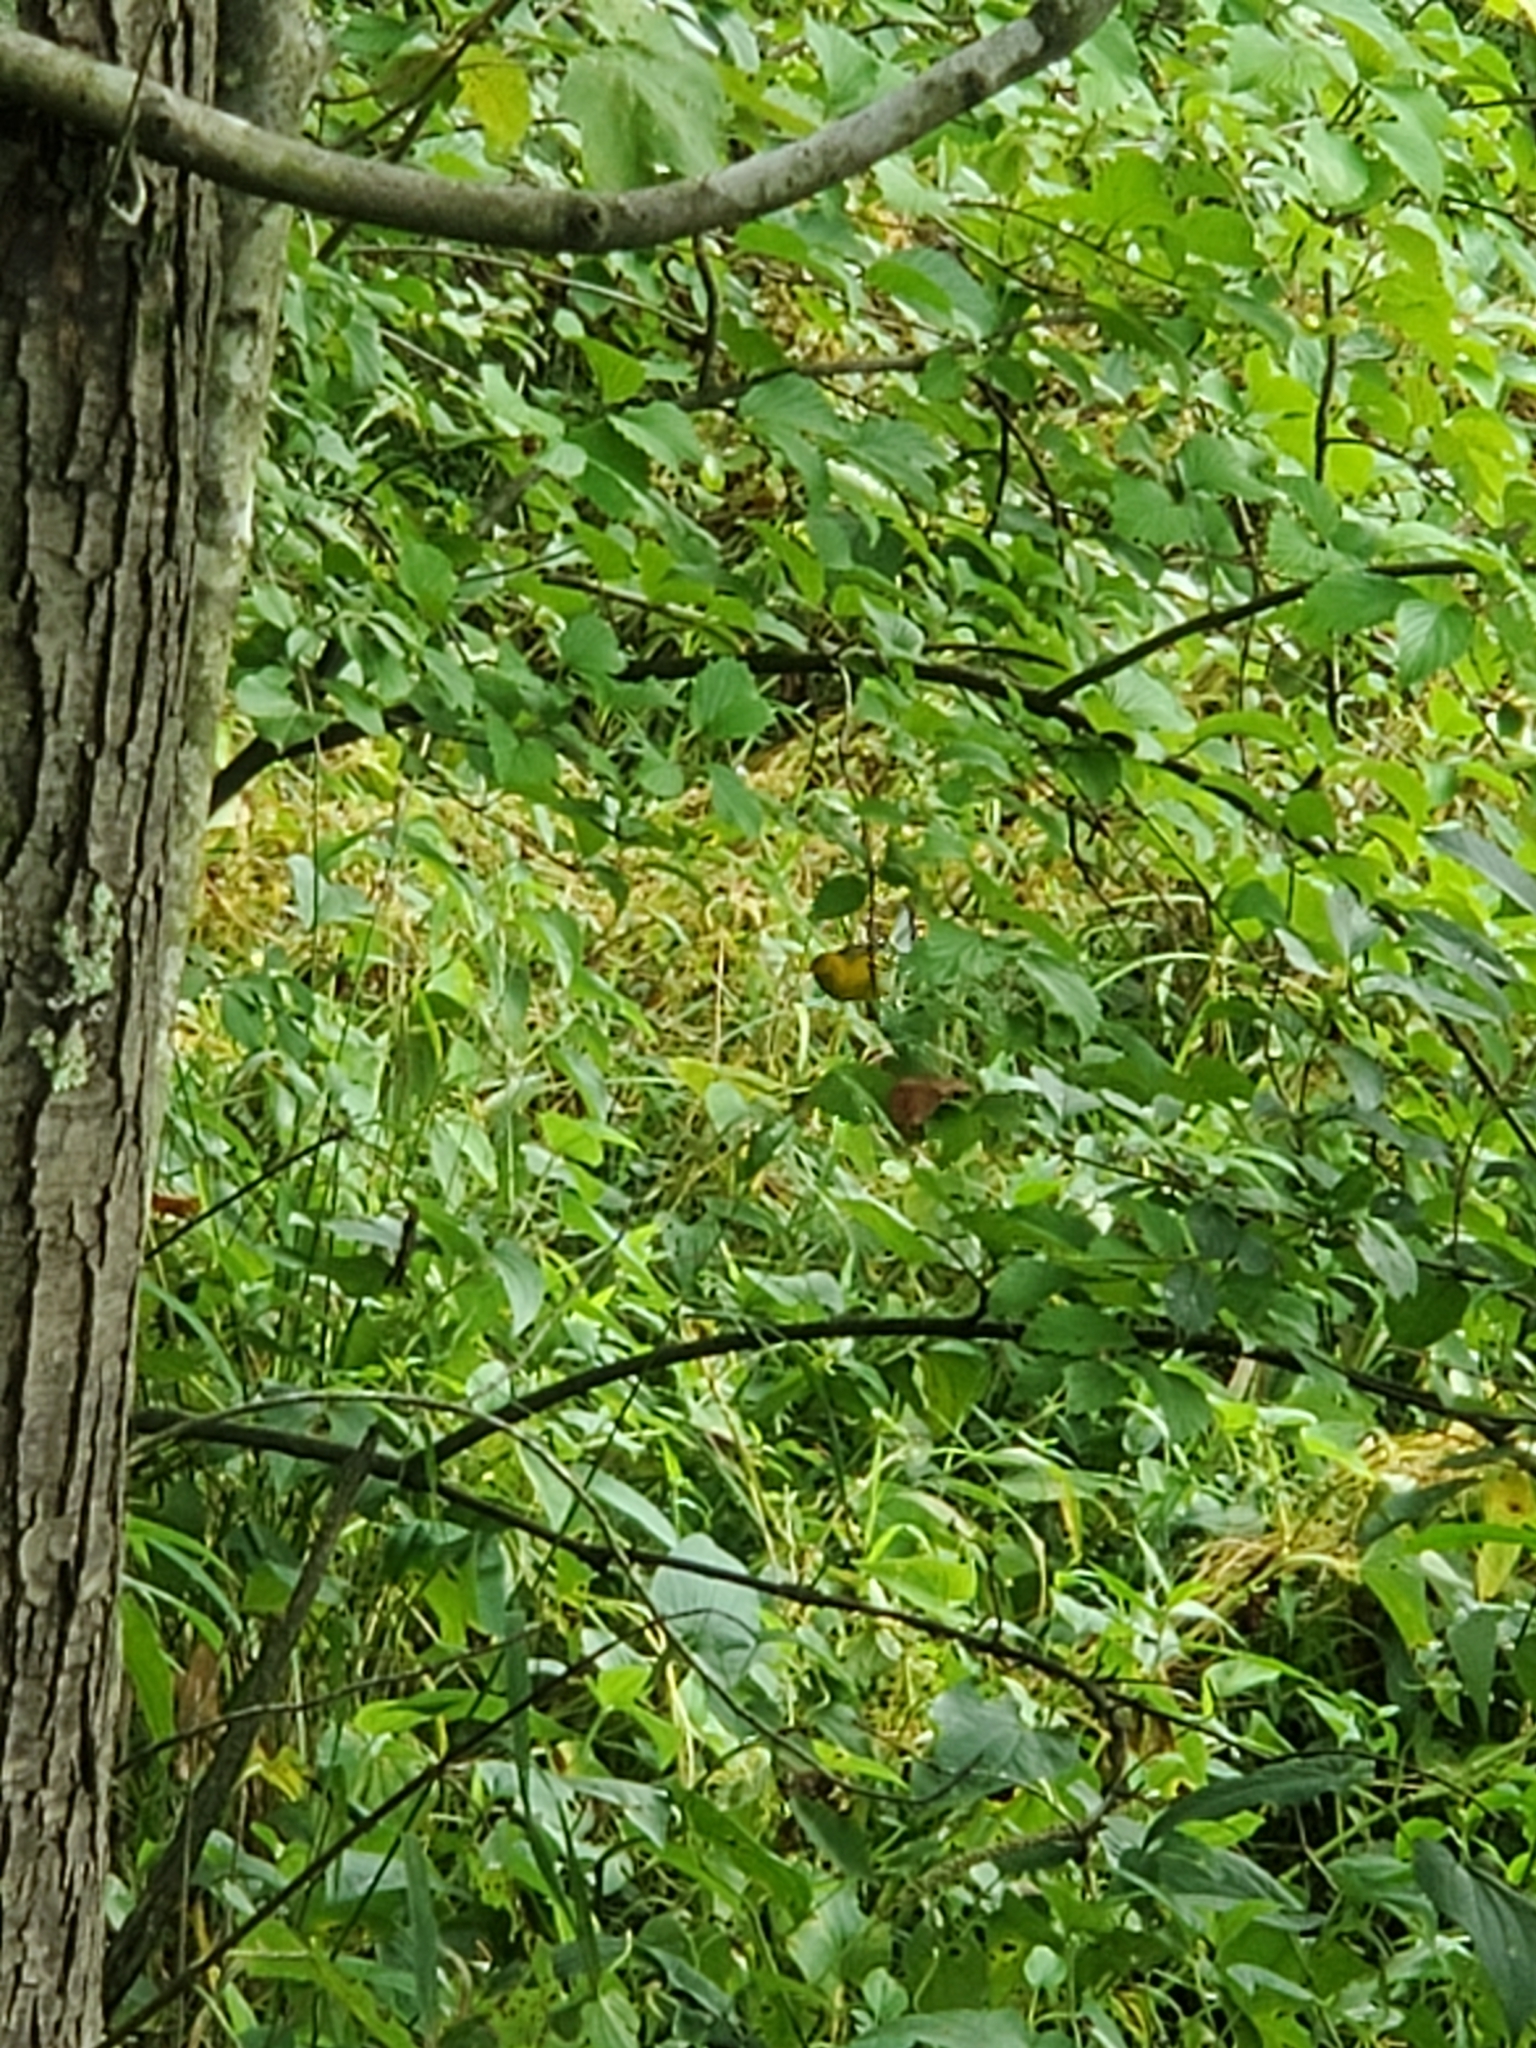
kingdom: Animalia
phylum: Chordata
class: Aves
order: Passeriformes
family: Parulidae
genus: Protonotaria
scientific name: Protonotaria citrea
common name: Prothonotary warbler
